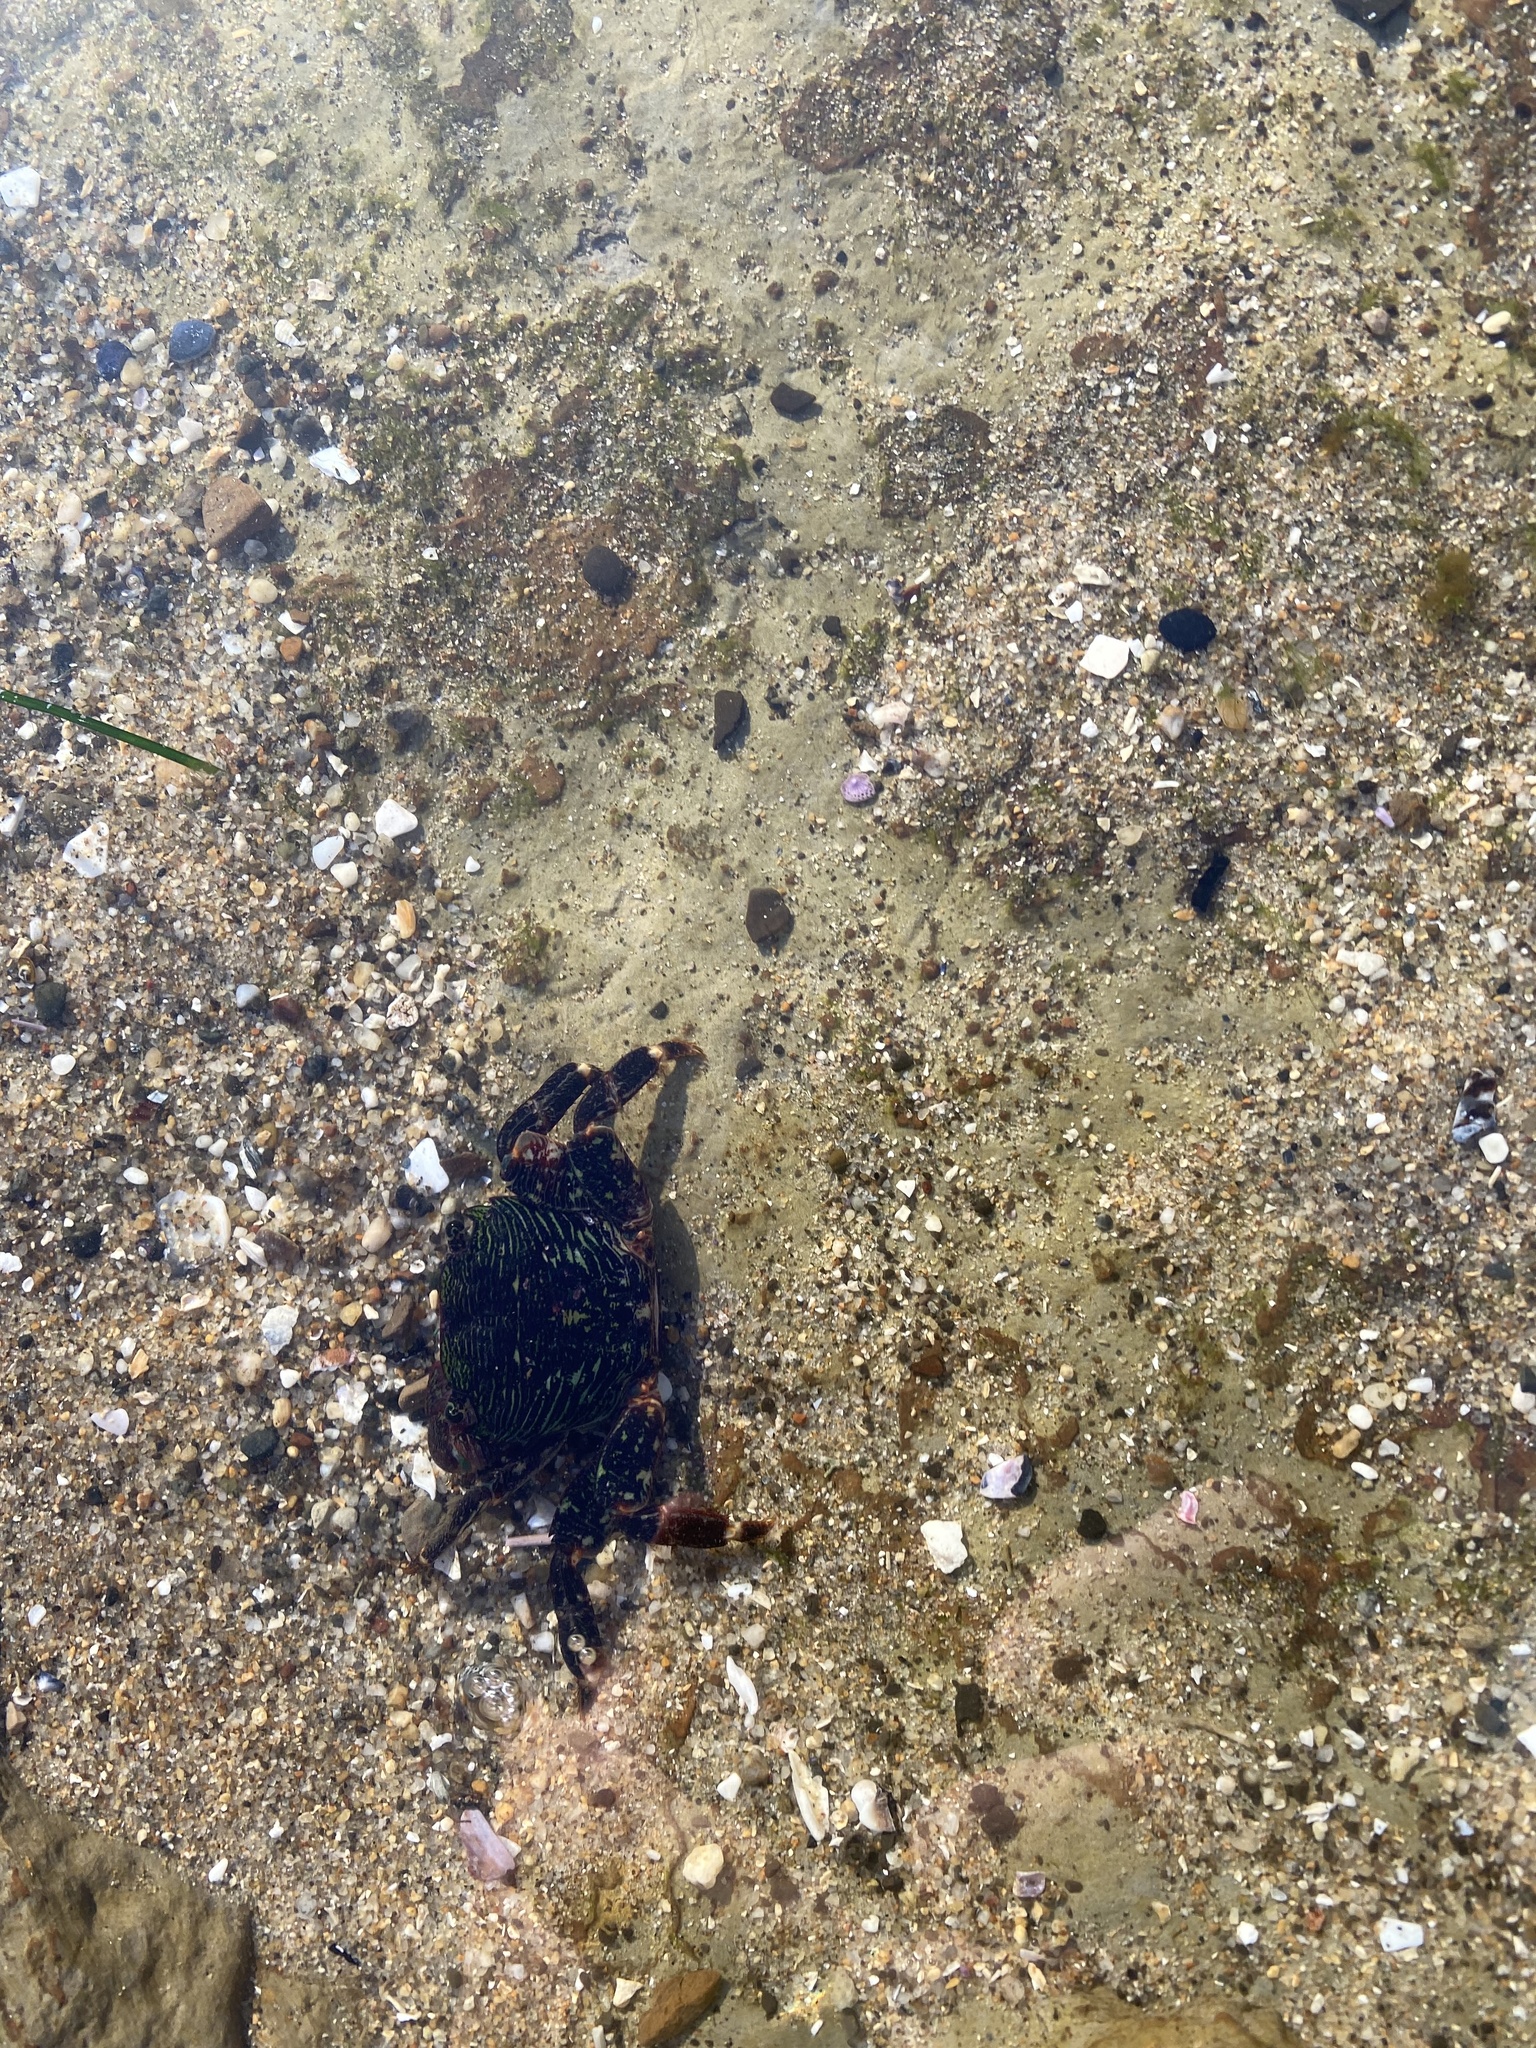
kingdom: Animalia
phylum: Arthropoda
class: Malacostraca
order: Decapoda
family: Grapsidae
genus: Pachygrapsus
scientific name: Pachygrapsus crassipes
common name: Striped shore crab
